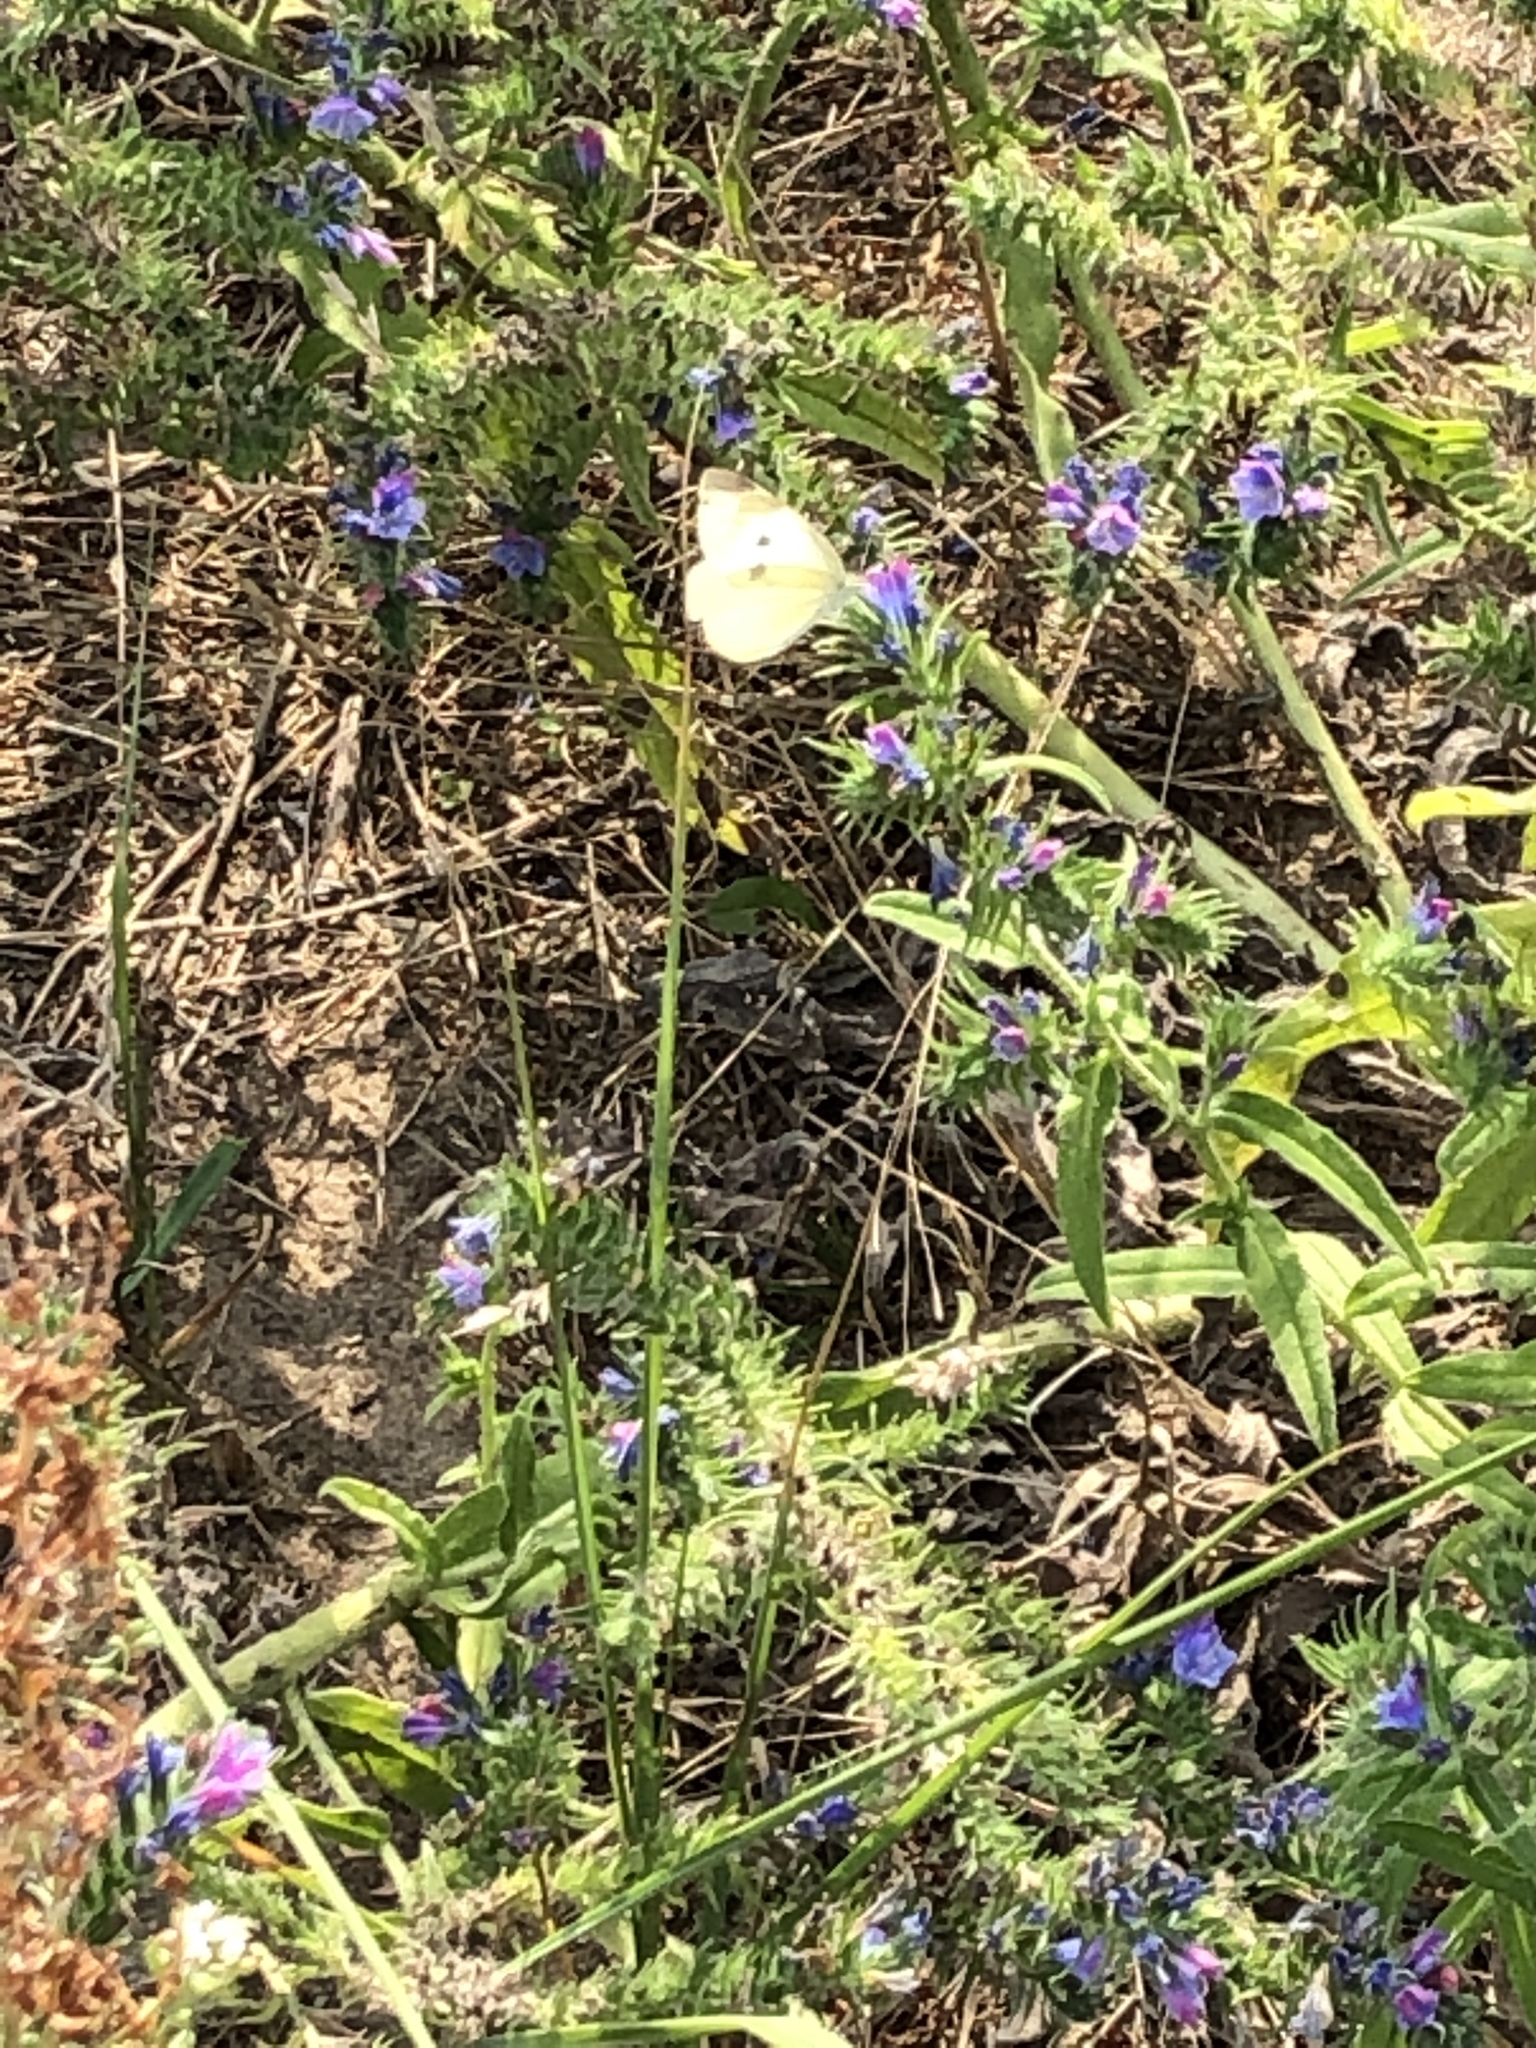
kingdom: Animalia
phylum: Arthropoda
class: Insecta
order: Lepidoptera
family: Pieridae
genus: Pieris
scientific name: Pieris rapae
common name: Small white
